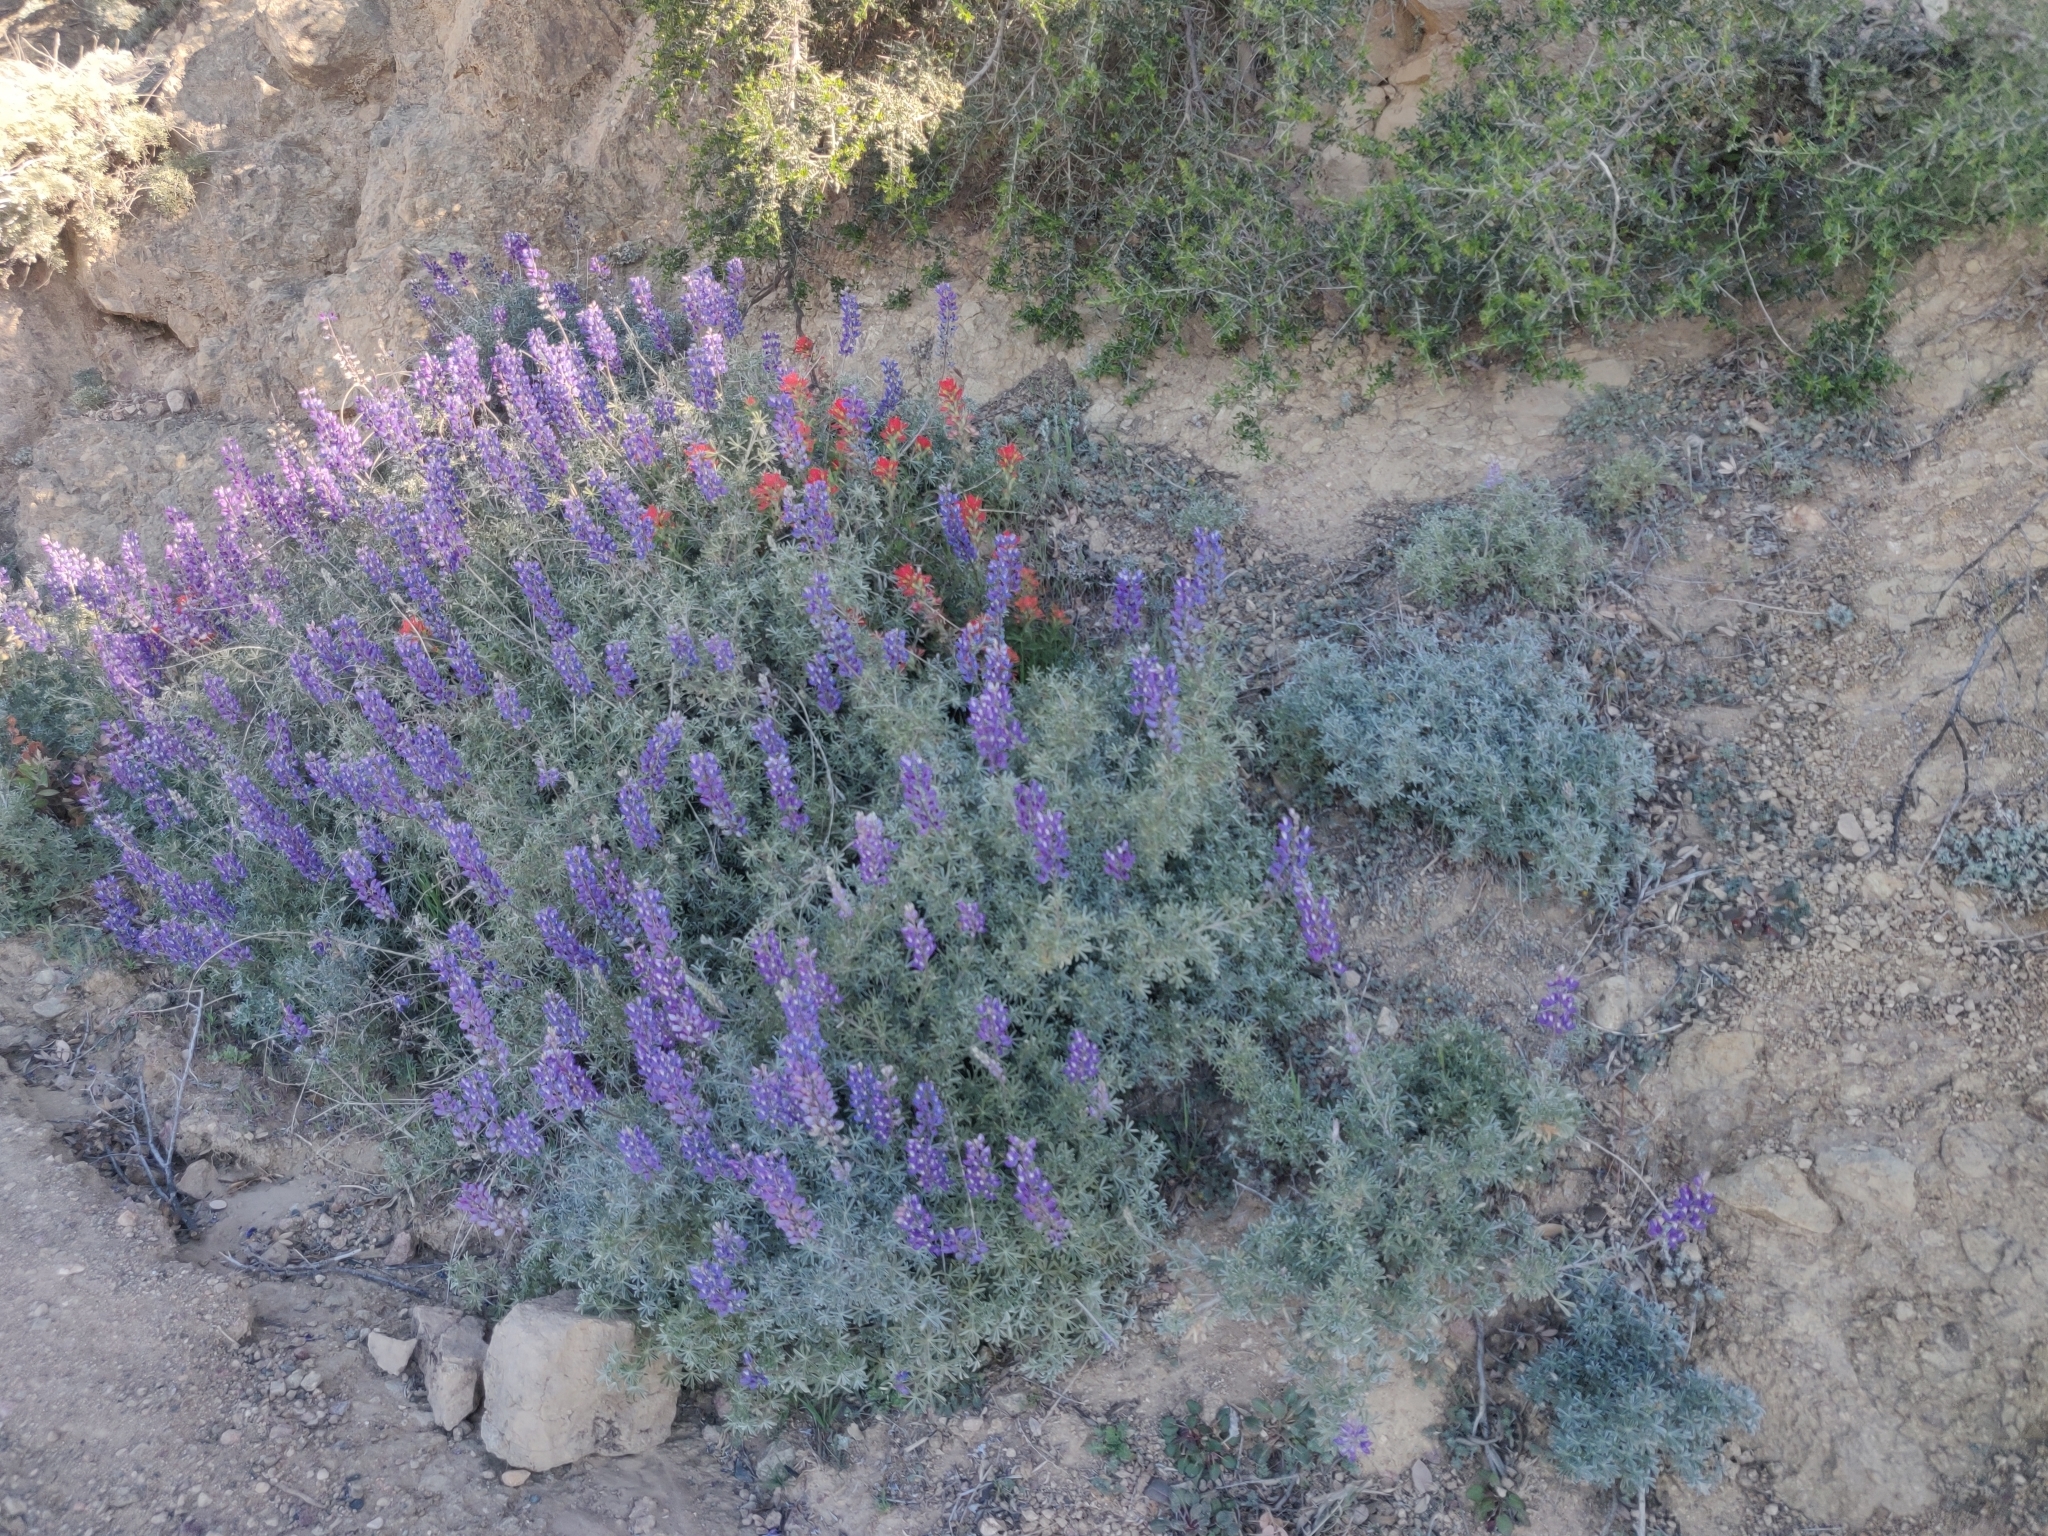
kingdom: Plantae
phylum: Tracheophyta
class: Magnoliopsida
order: Fabales
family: Fabaceae
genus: Lupinus
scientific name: Lupinus albifrons
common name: Foothill lupine
